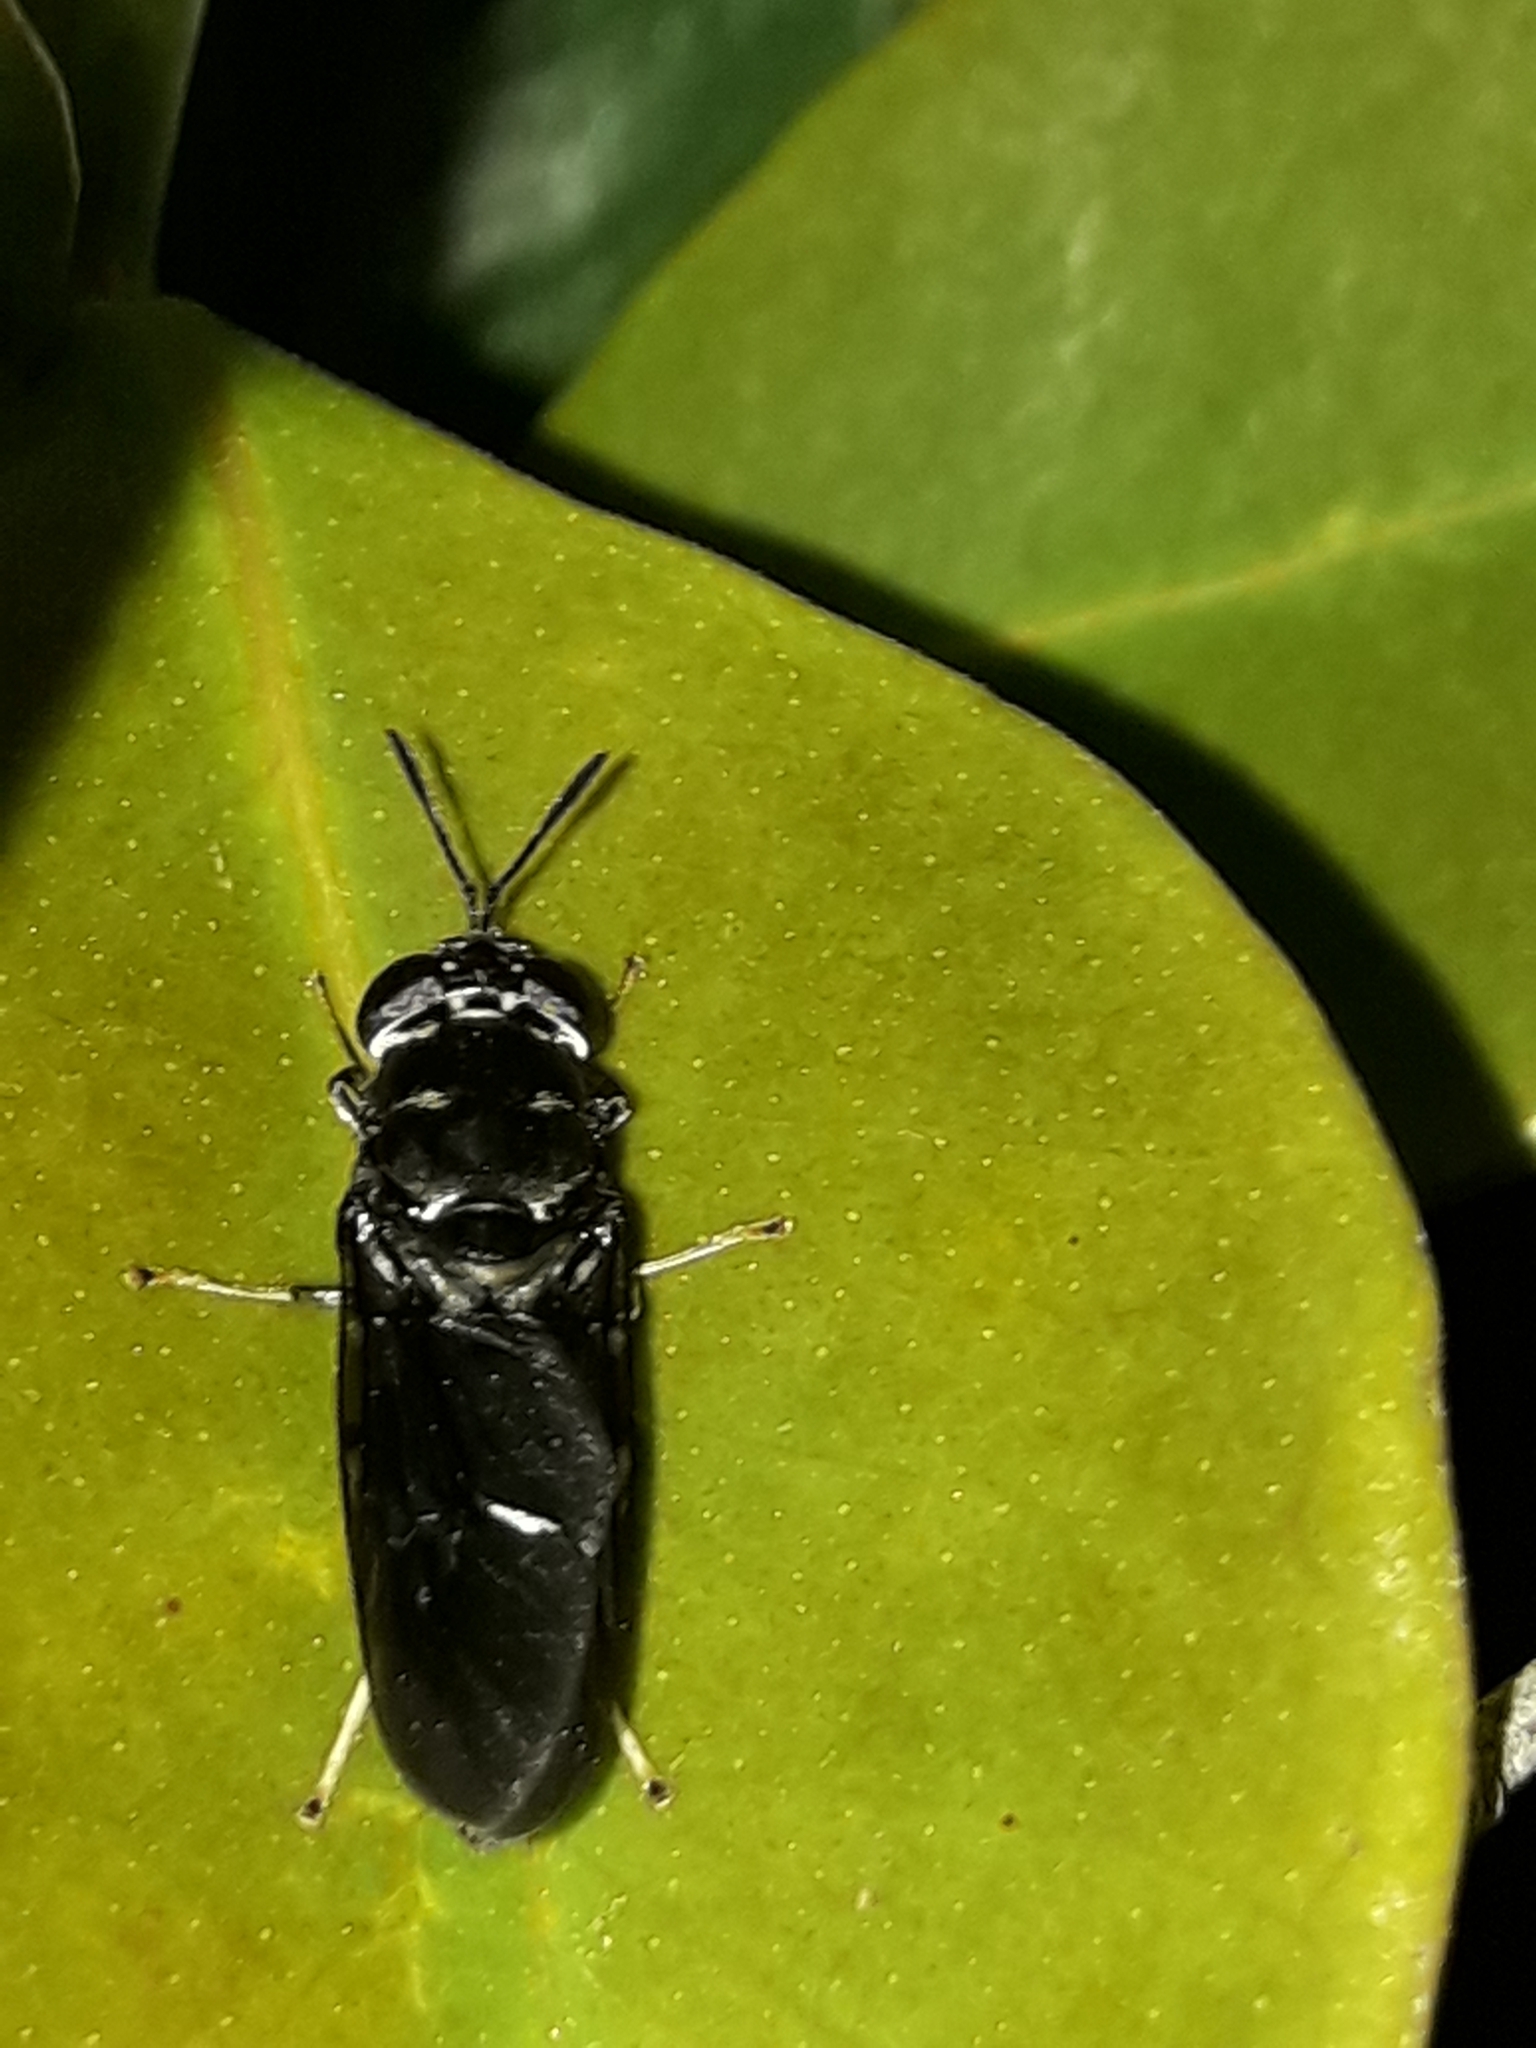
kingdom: Animalia
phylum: Arthropoda
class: Insecta
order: Diptera
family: Stratiomyidae
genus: Hermetia
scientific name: Hermetia illucens
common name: Black soldier fly
